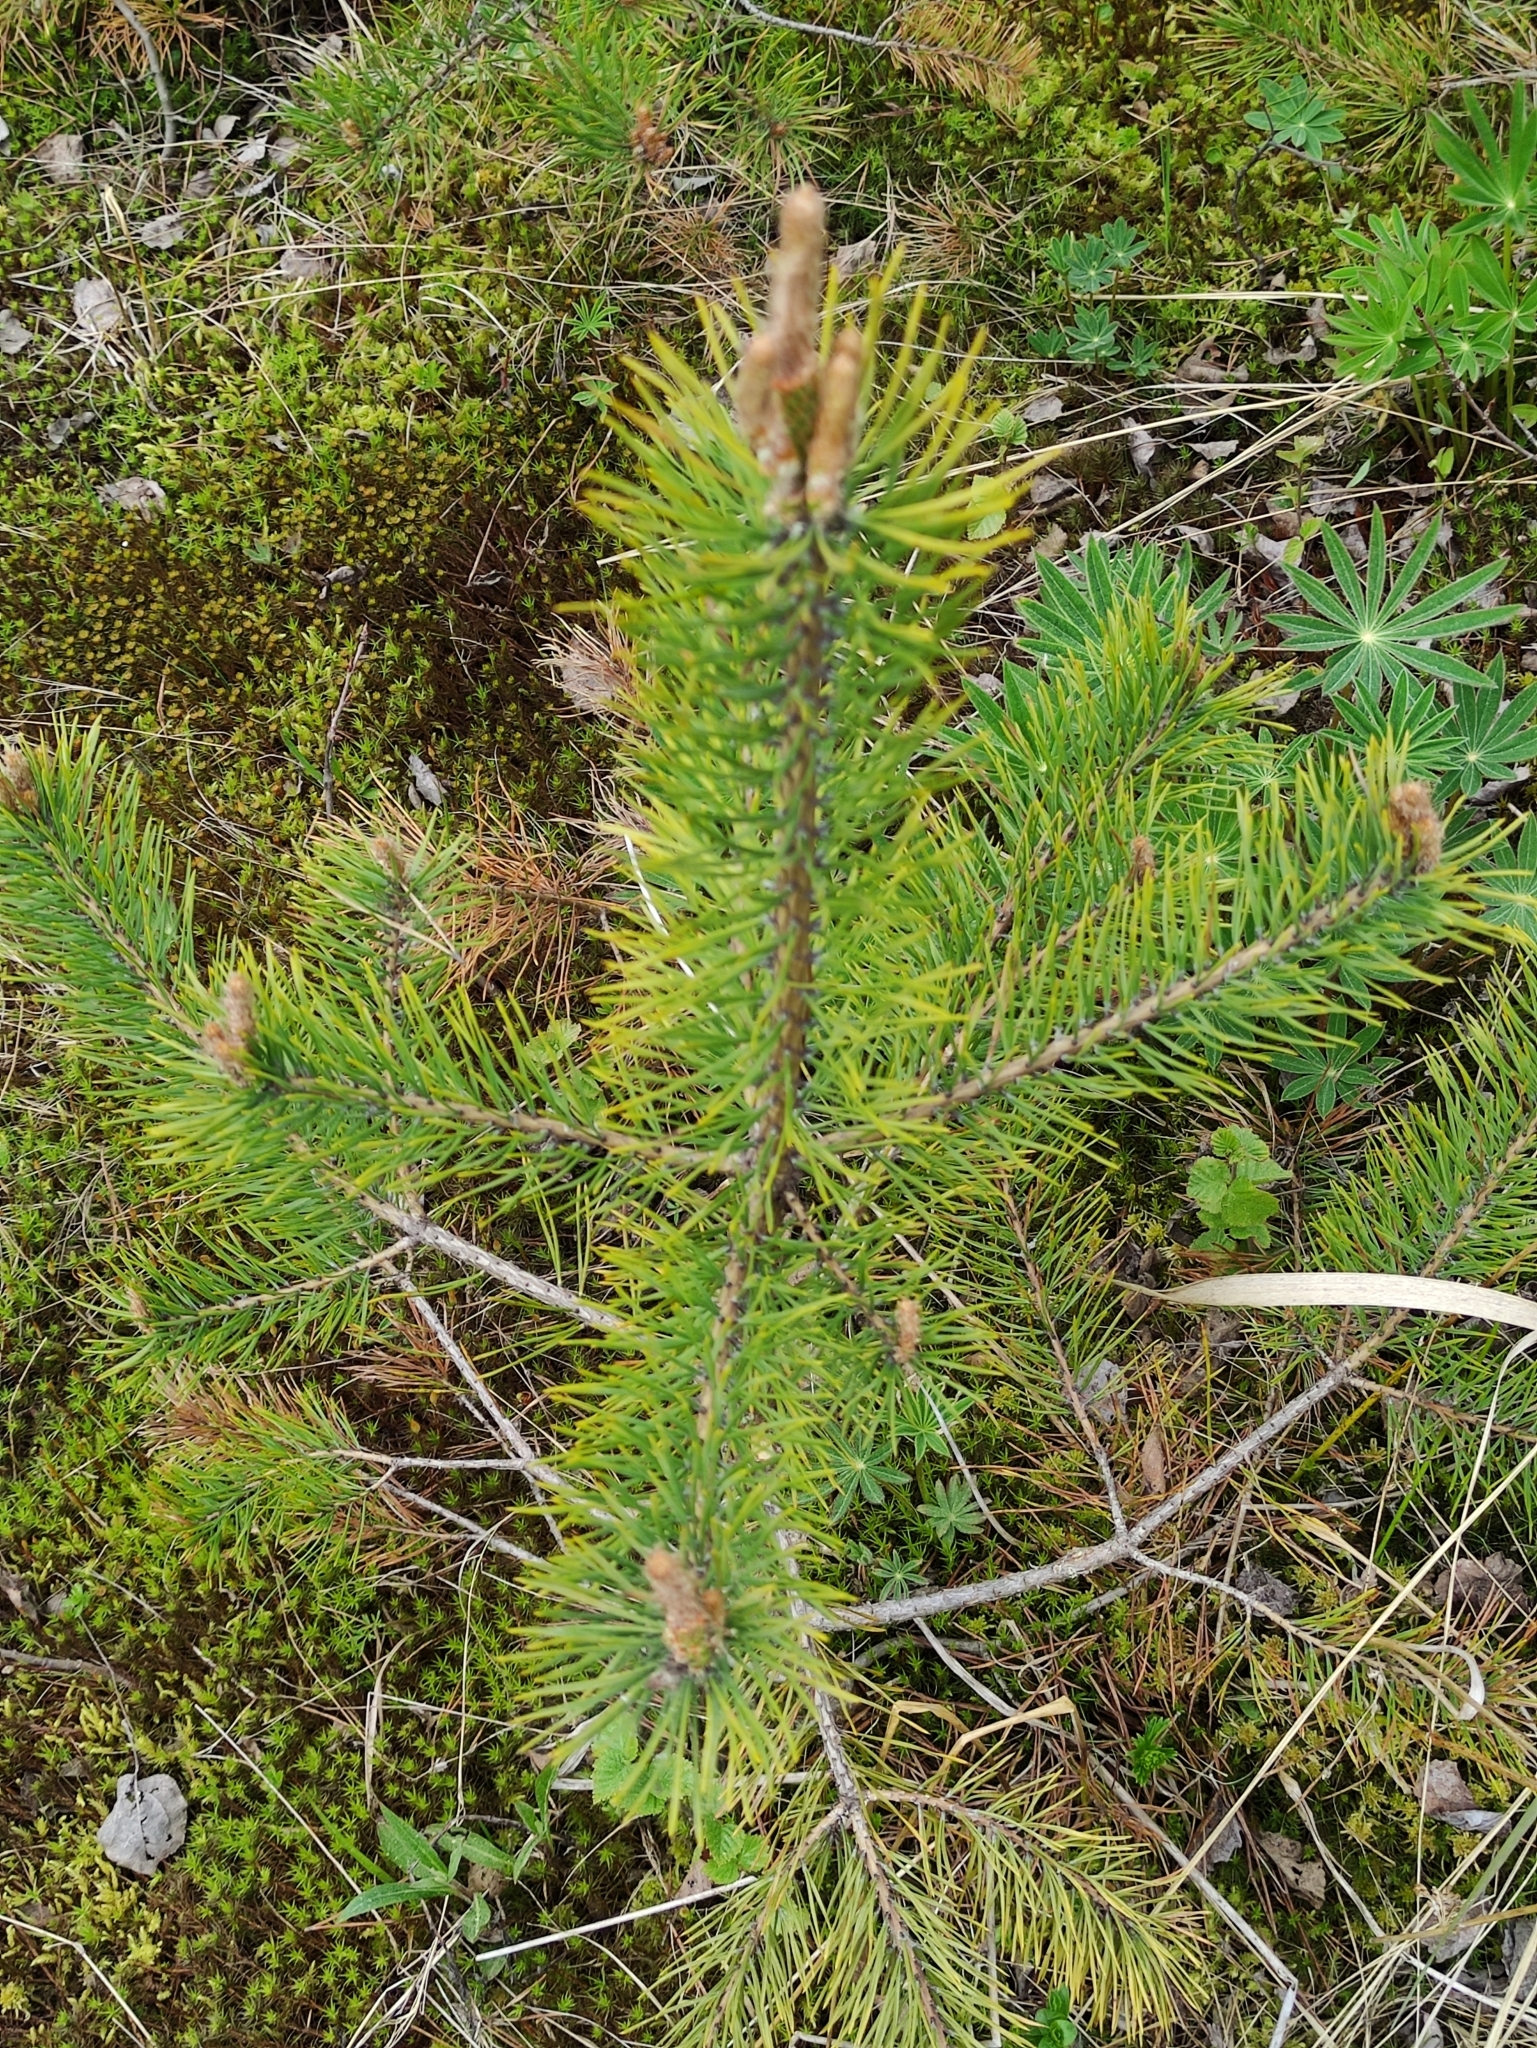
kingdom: Plantae
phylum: Tracheophyta
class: Pinopsida
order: Pinales
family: Pinaceae
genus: Pinus
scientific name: Pinus sylvestris
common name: Scots pine
